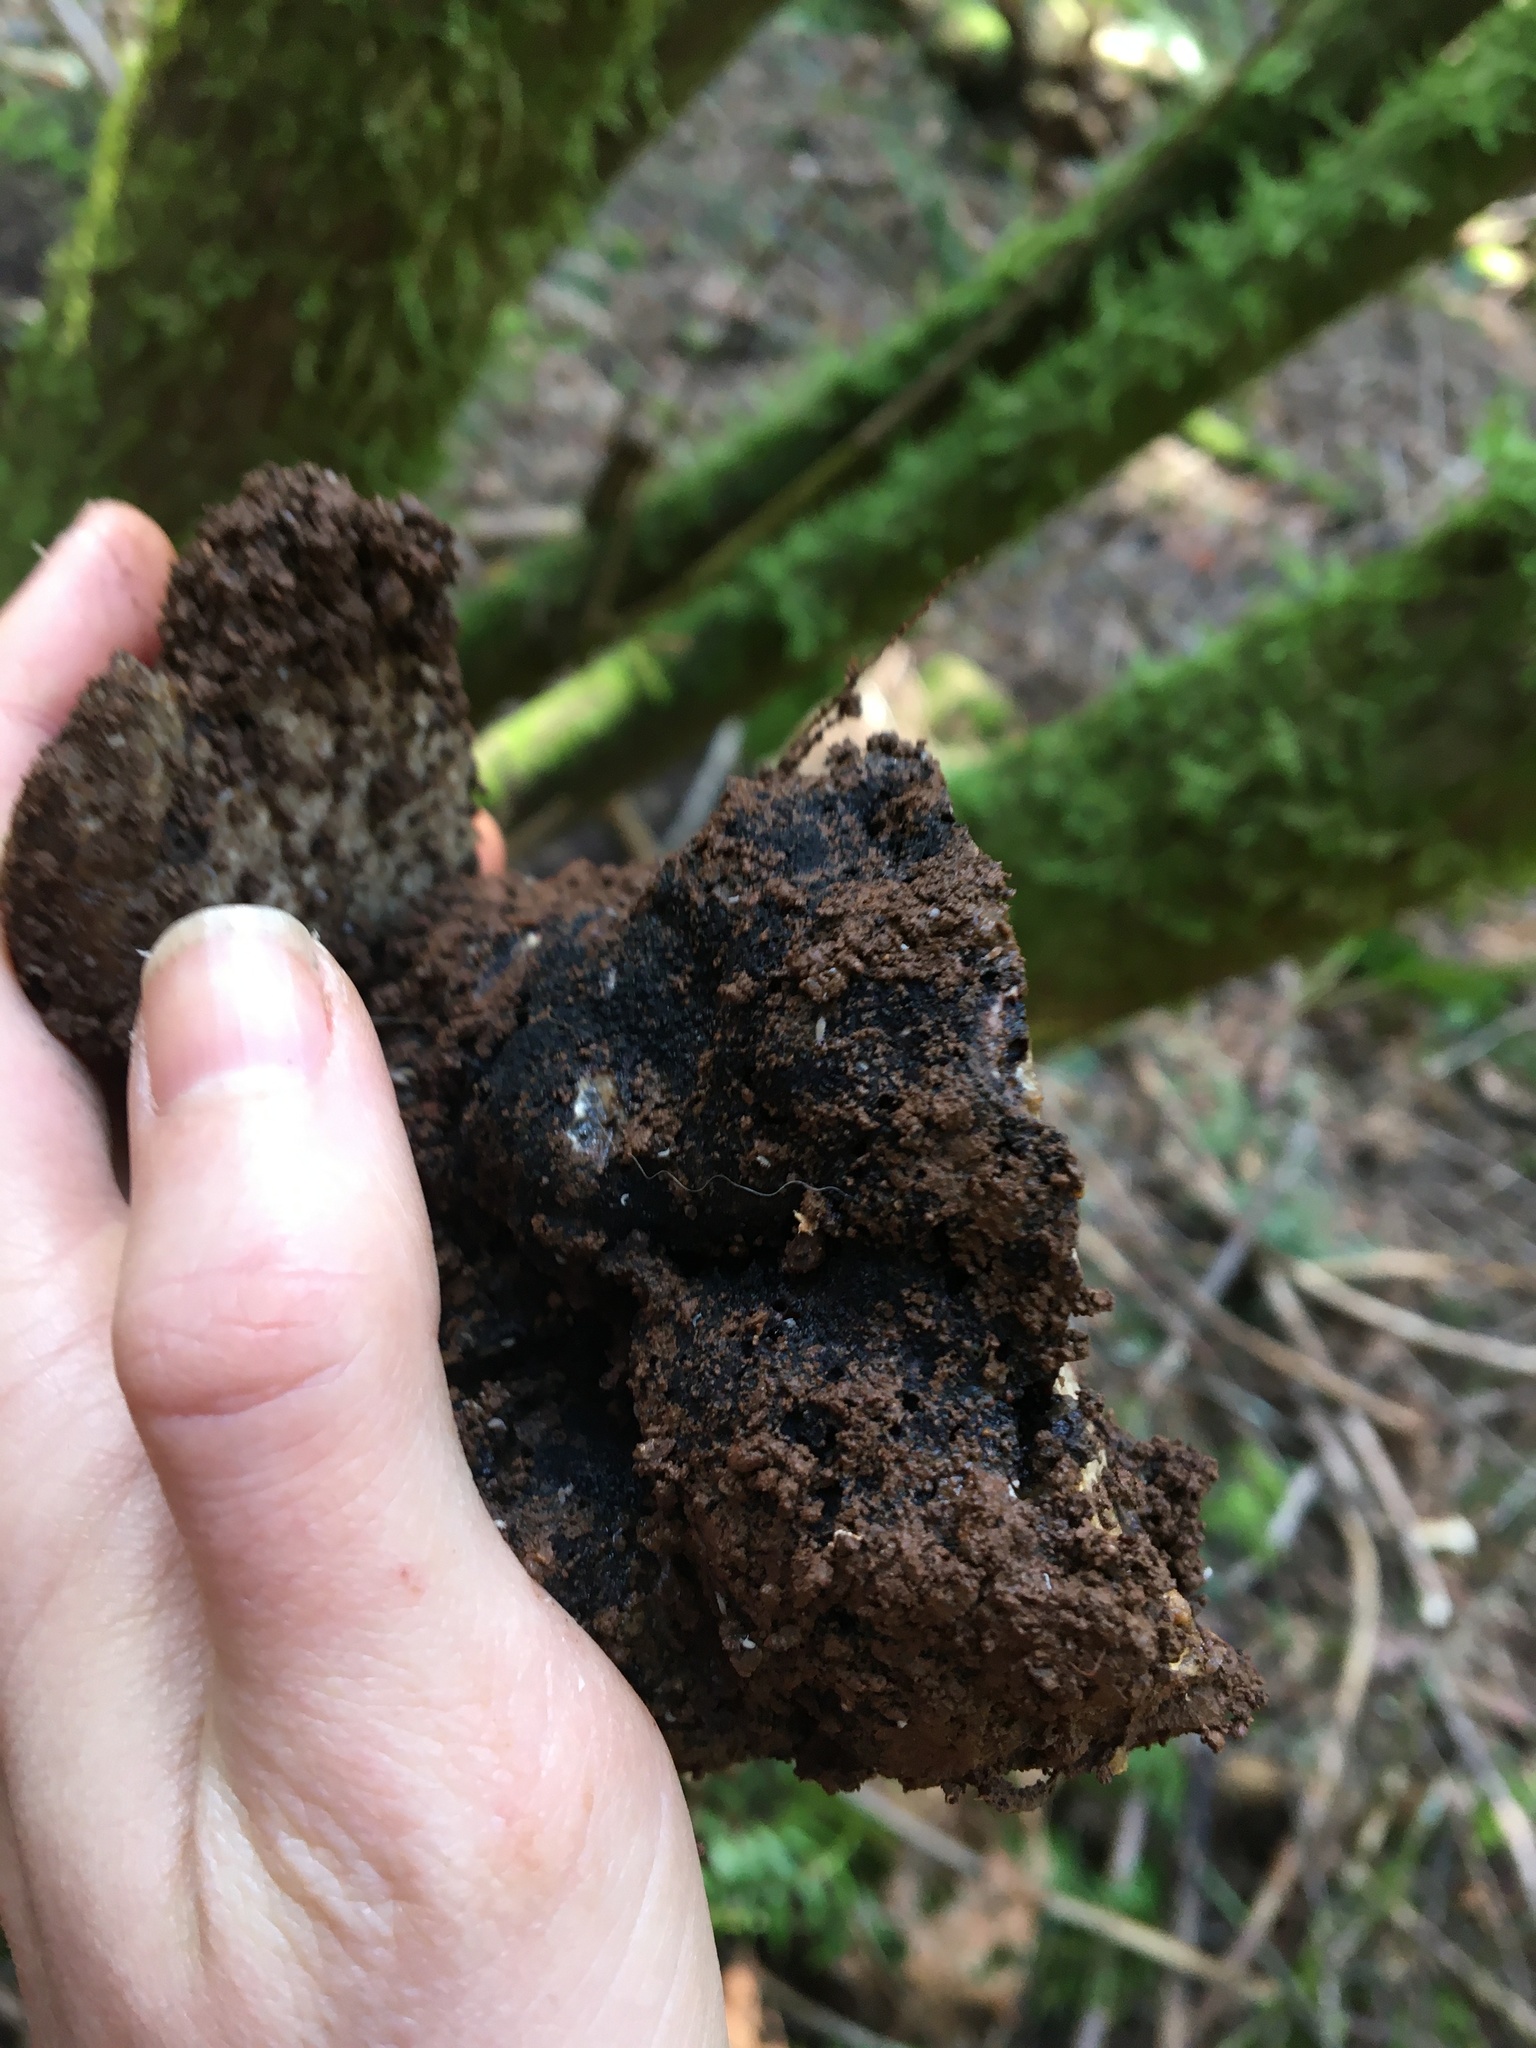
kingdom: Plantae
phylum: Tracheophyta
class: Polypodiopsida
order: Polypodiales
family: Polypodiaceae
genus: Polypodium
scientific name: Polypodium glycyrrhiza
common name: Licorice fern
